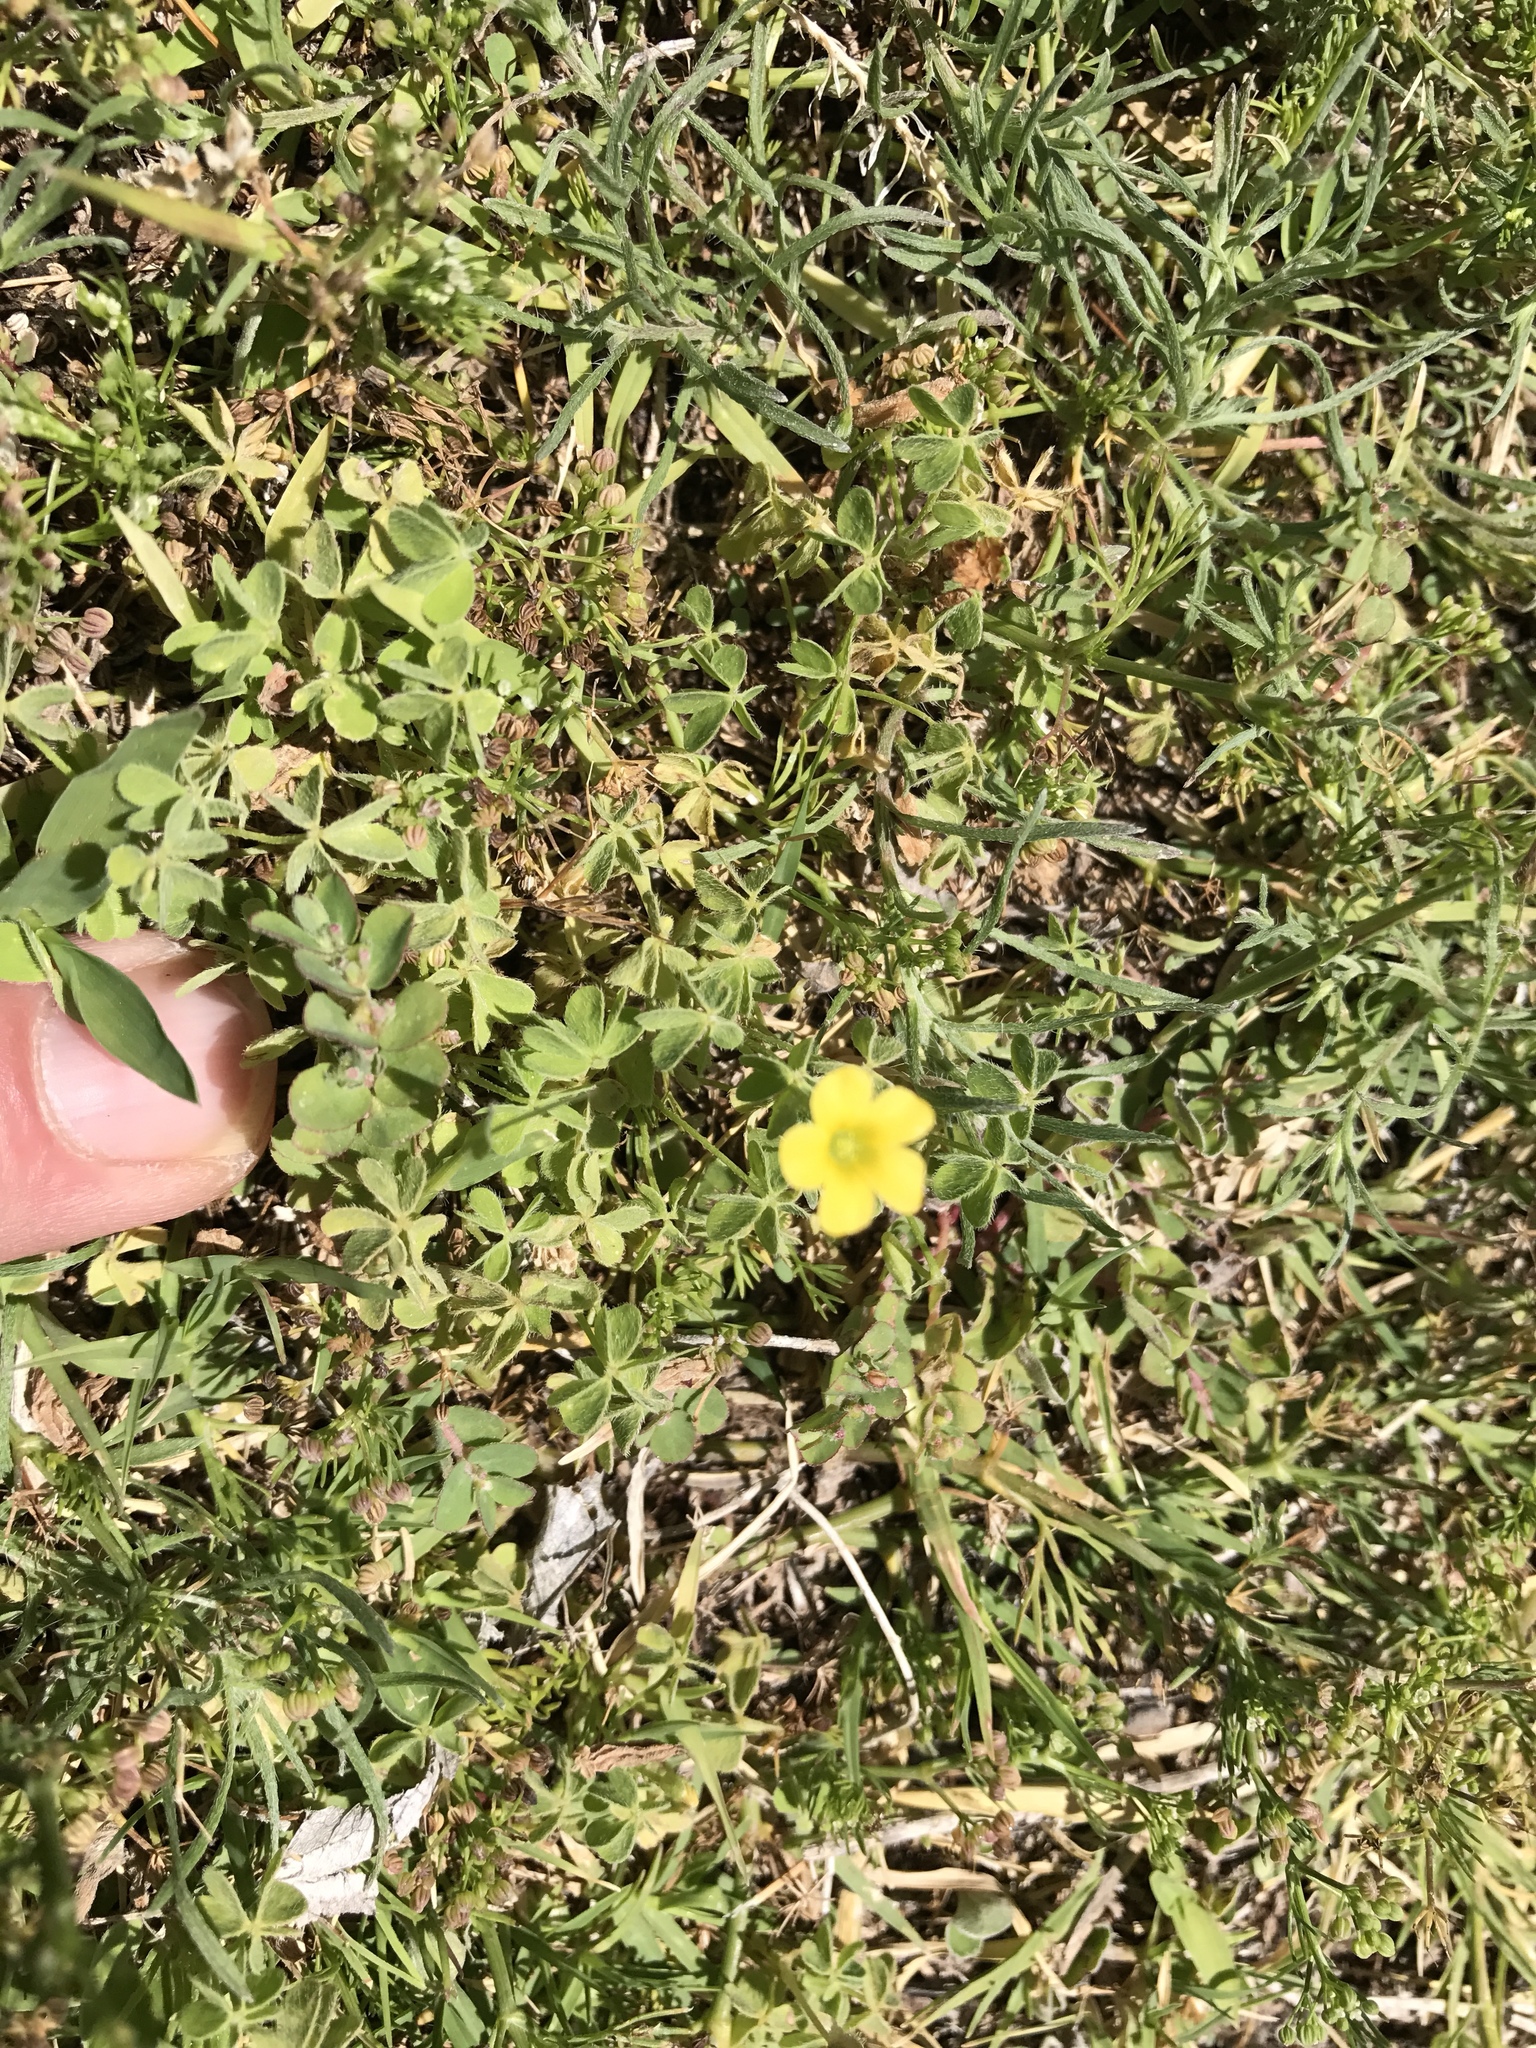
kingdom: Plantae
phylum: Tracheophyta
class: Magnoliopsida
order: Oxalidales
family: Oxalidaceae
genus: Oxalis
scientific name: Oxalis corniculata
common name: Procumbent yellow-sorrel
